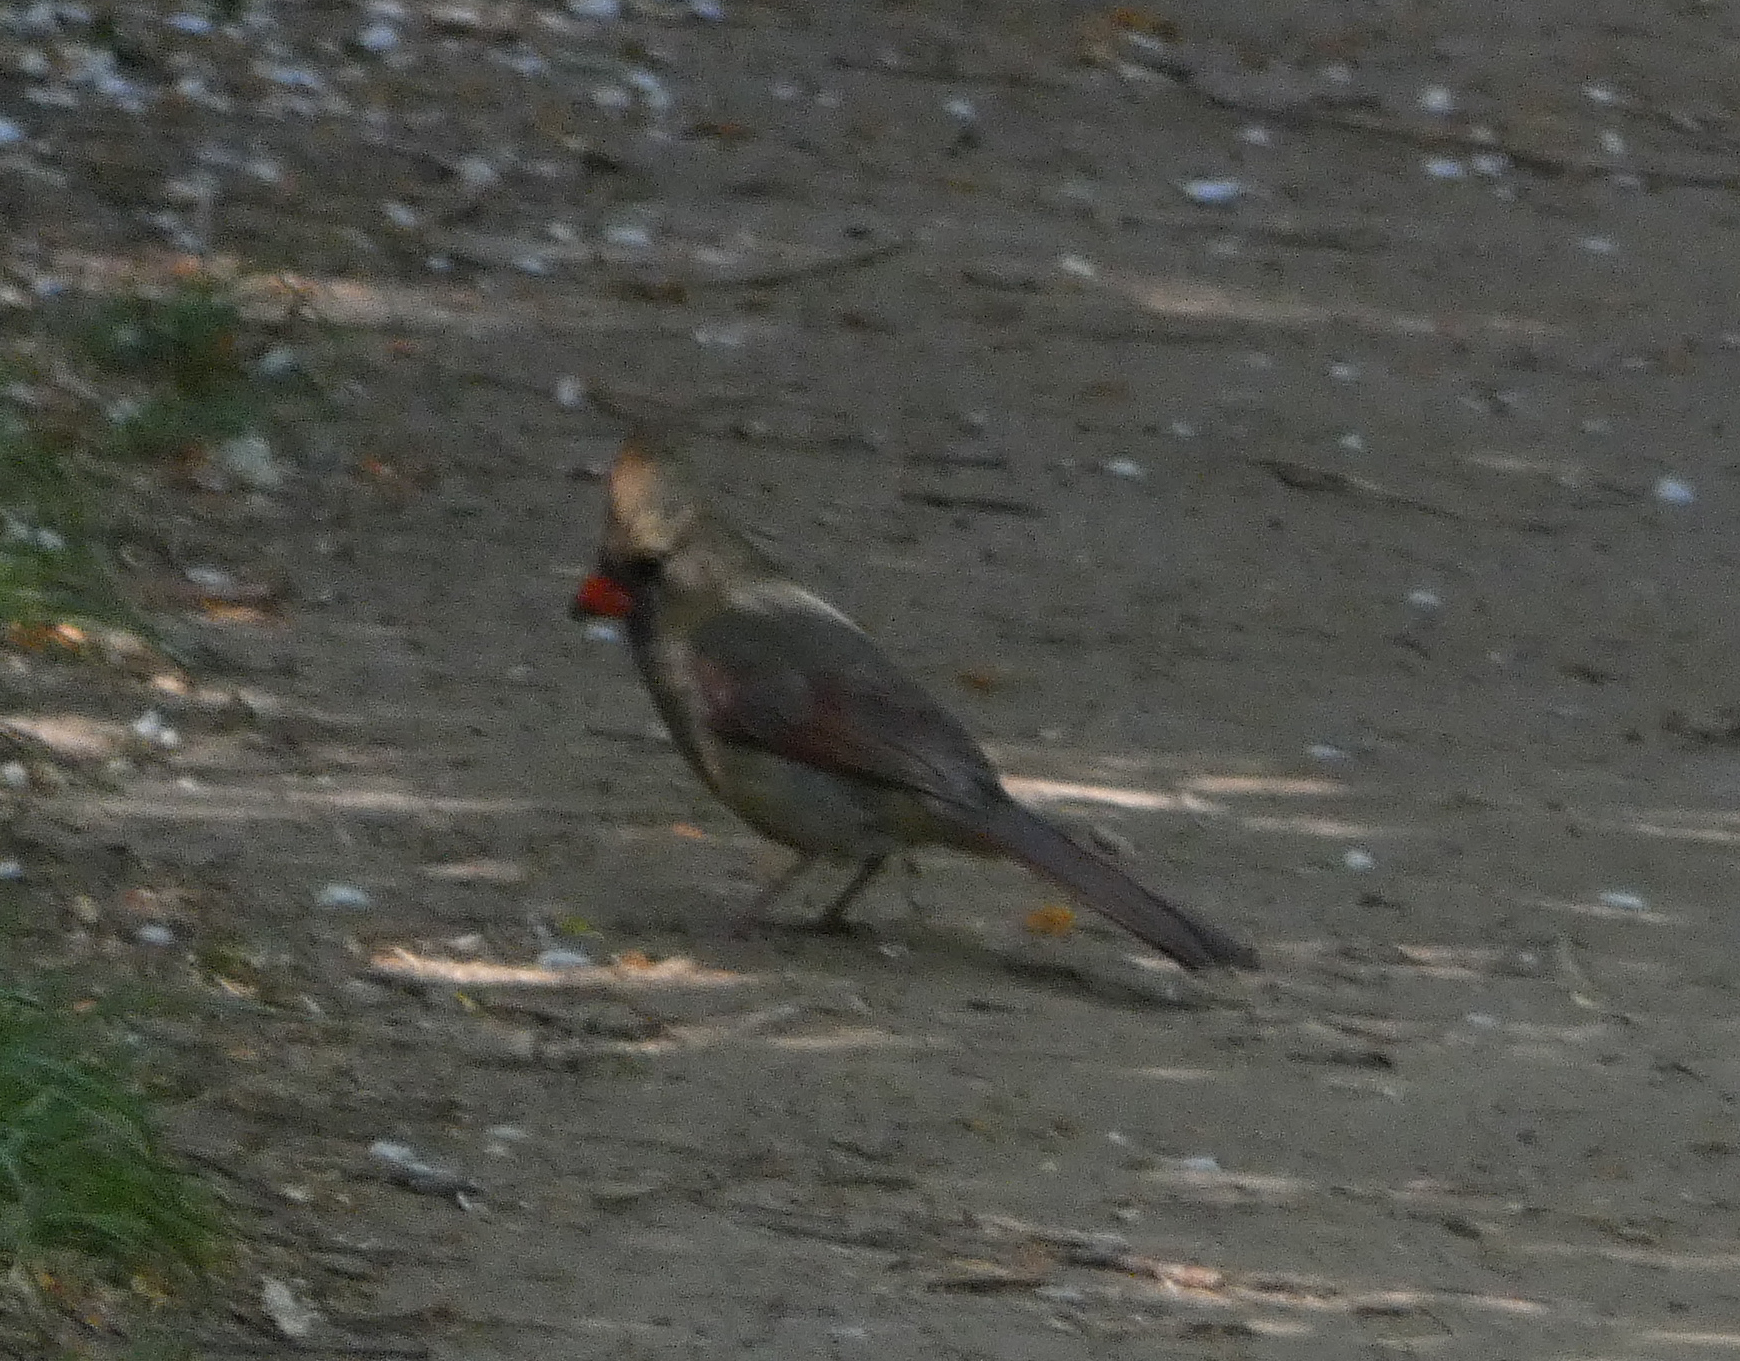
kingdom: Animalia
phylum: Chordata
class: Aves
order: Passeriformes
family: Cardinalidae
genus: Cardinalis
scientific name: Cardinalis cardinalis
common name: Northern cardinal
